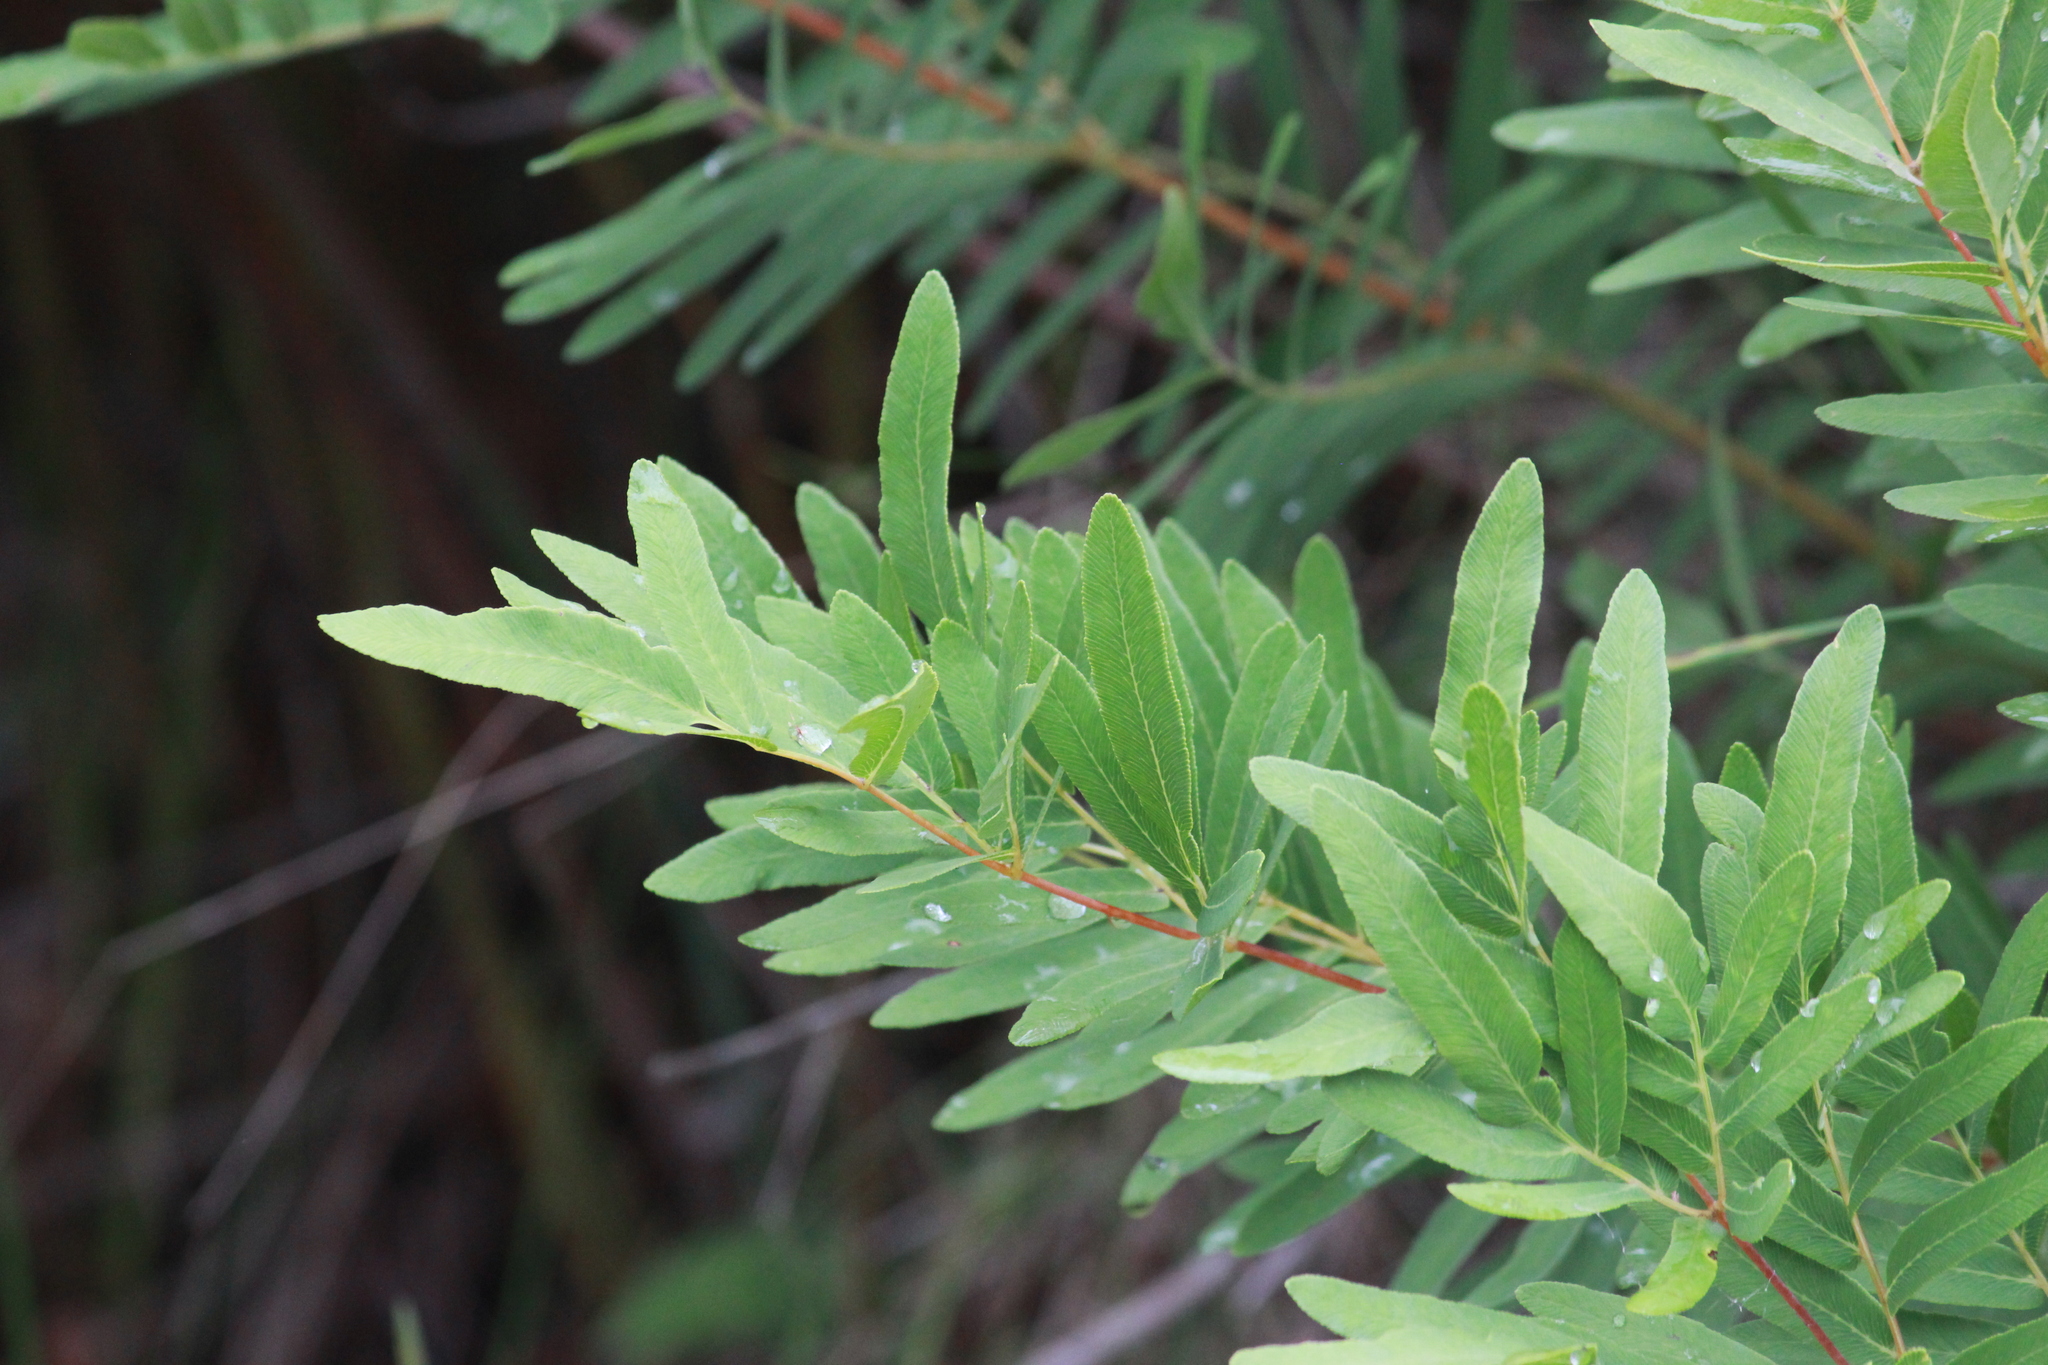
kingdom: Plantae
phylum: Tracheophyta
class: Polypodiopsida
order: Osmundales
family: Osmundaceae
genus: Osmunda
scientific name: Osmunda acuta
